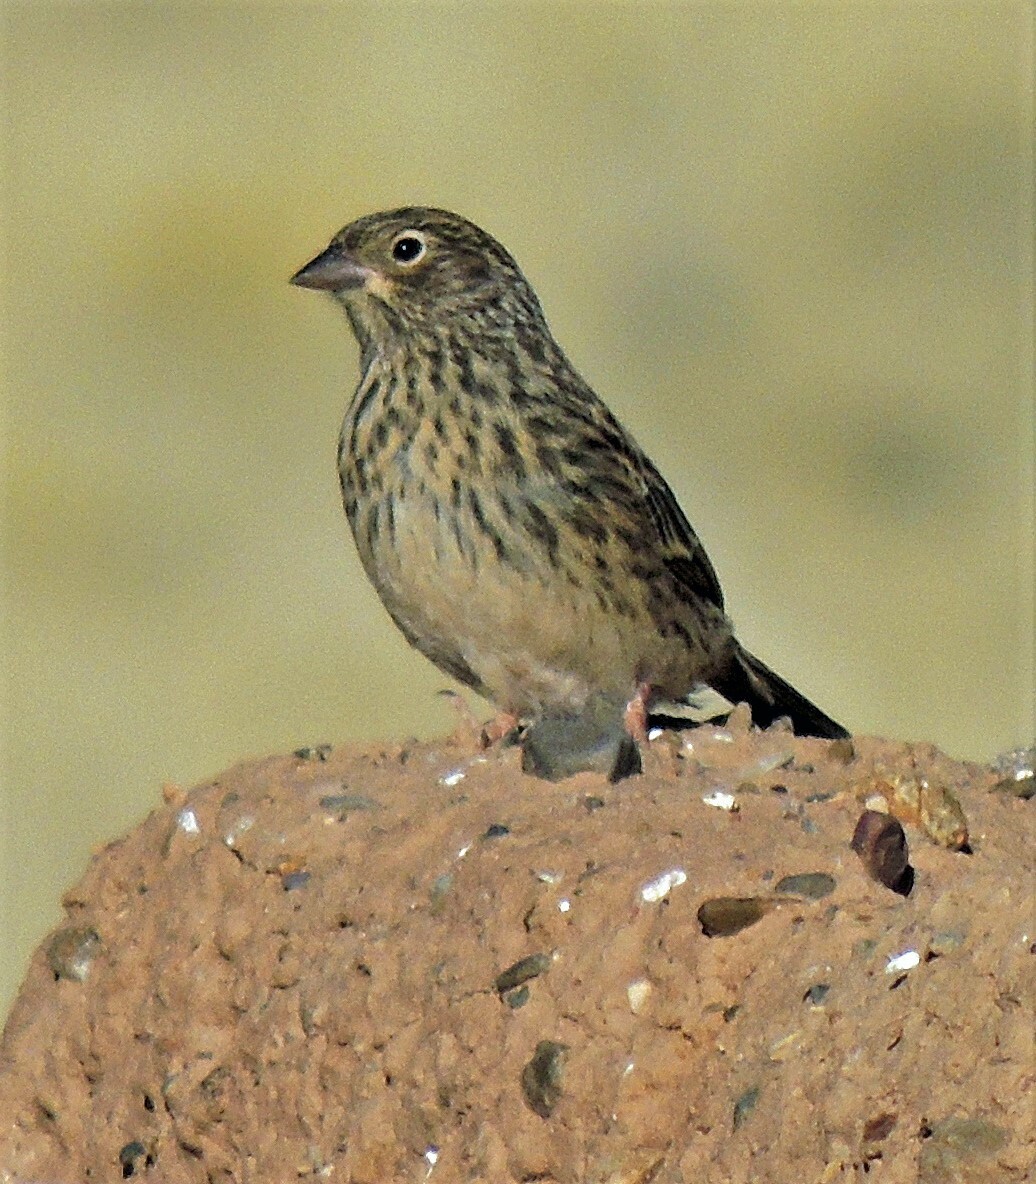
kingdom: Animalia
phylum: Chordata
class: Aves
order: Passeriformes
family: Thraupidae
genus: Porphyrospiza
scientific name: Porphyrospiza alaudina
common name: Band-tailed sierra finch
